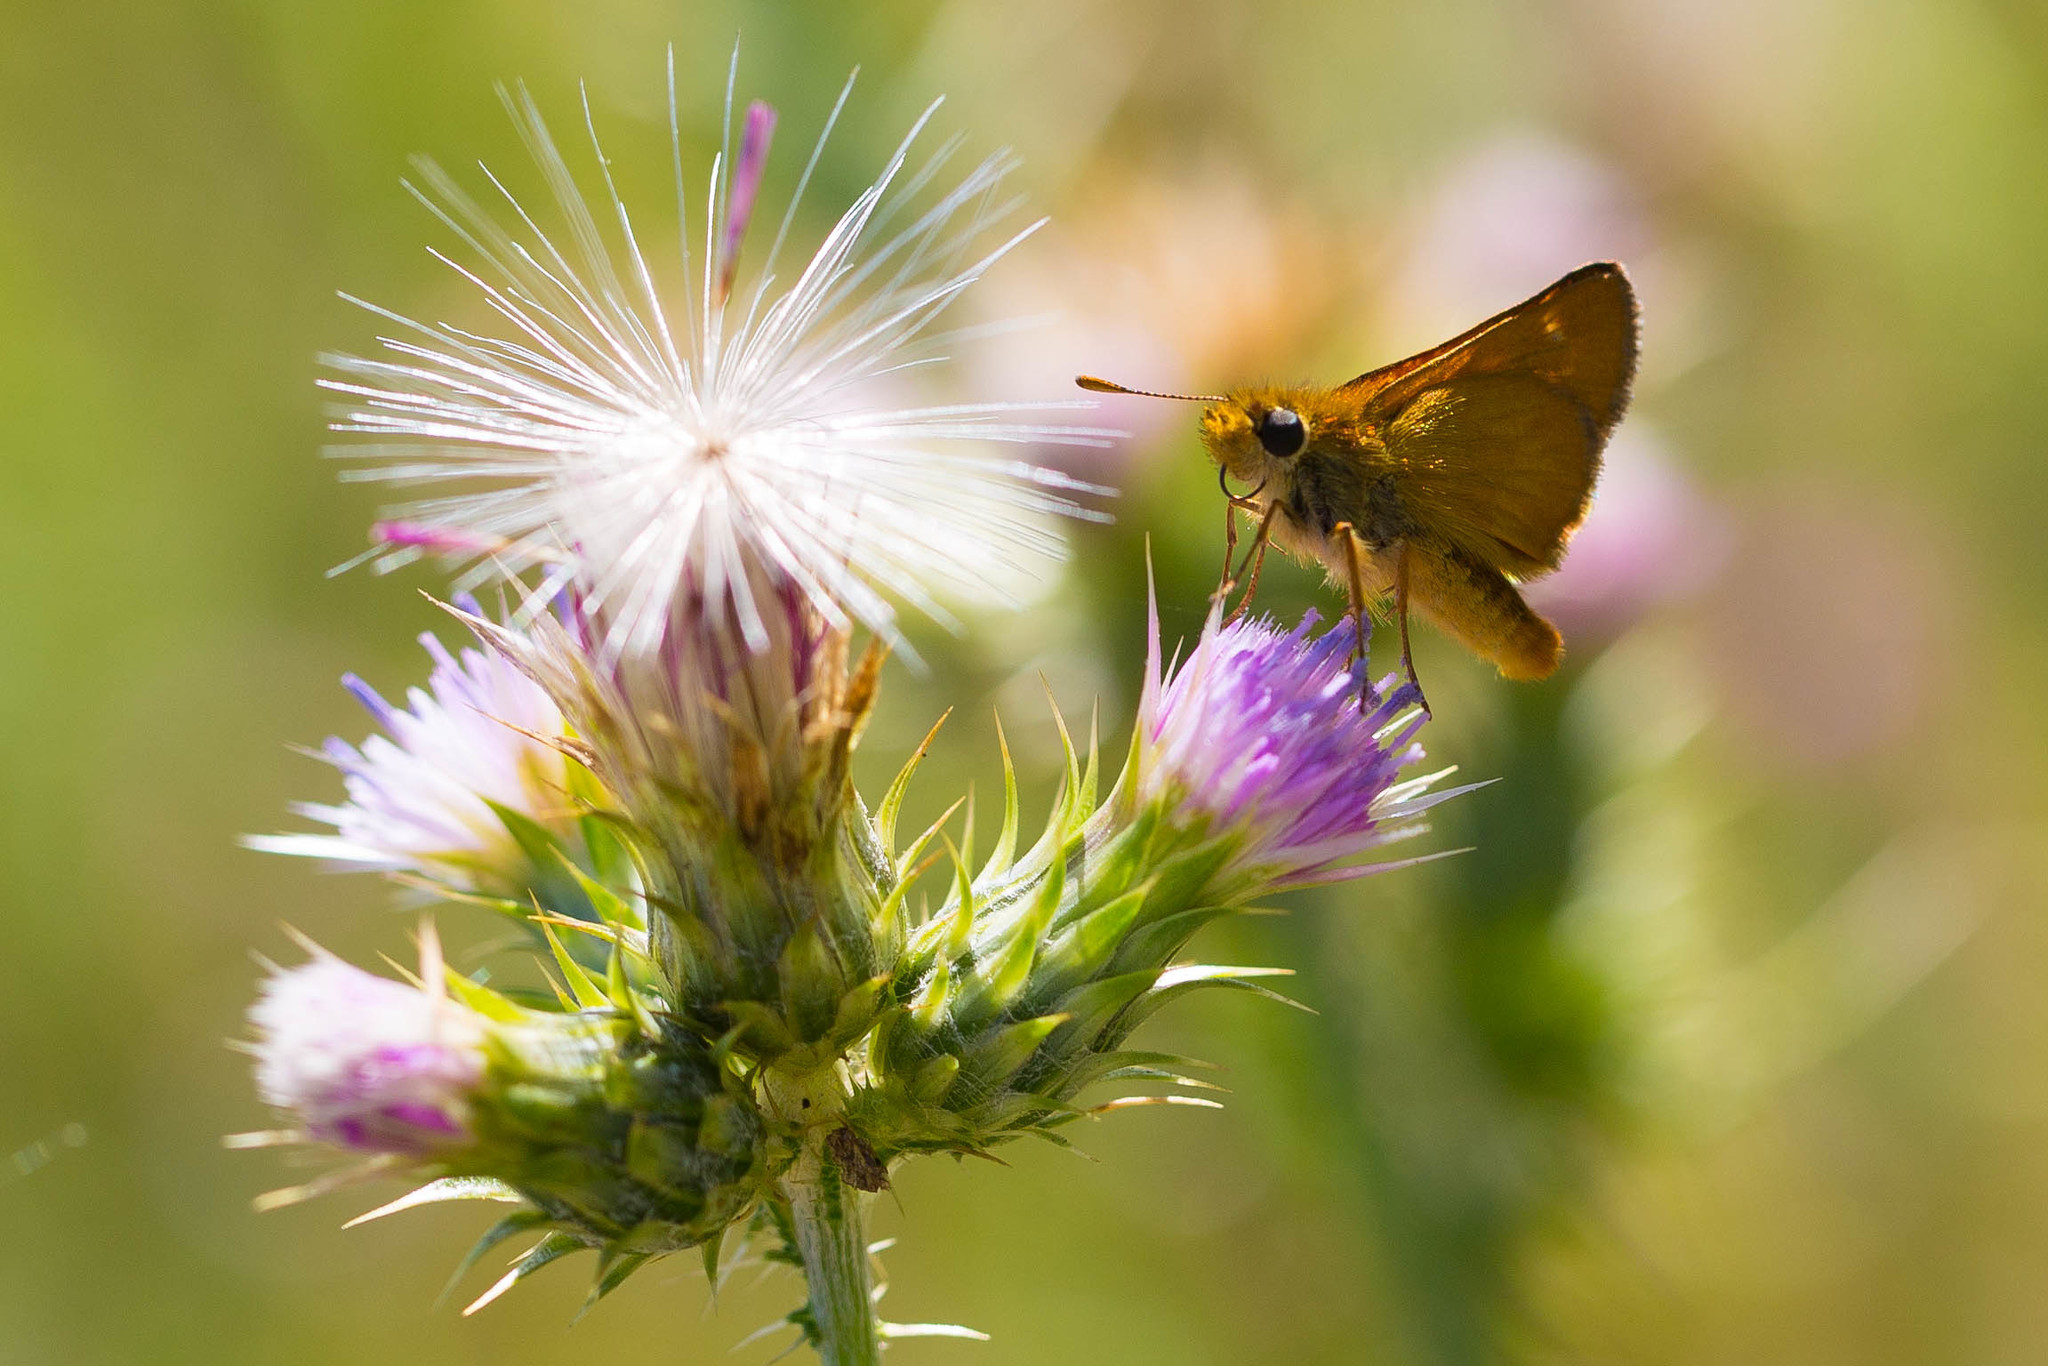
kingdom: Animalia
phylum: Arthropoda
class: Insecta
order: Lepidoptera
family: Hesperiidae
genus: Ochlodes
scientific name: Ochlodes agricola
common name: Rural skipper
